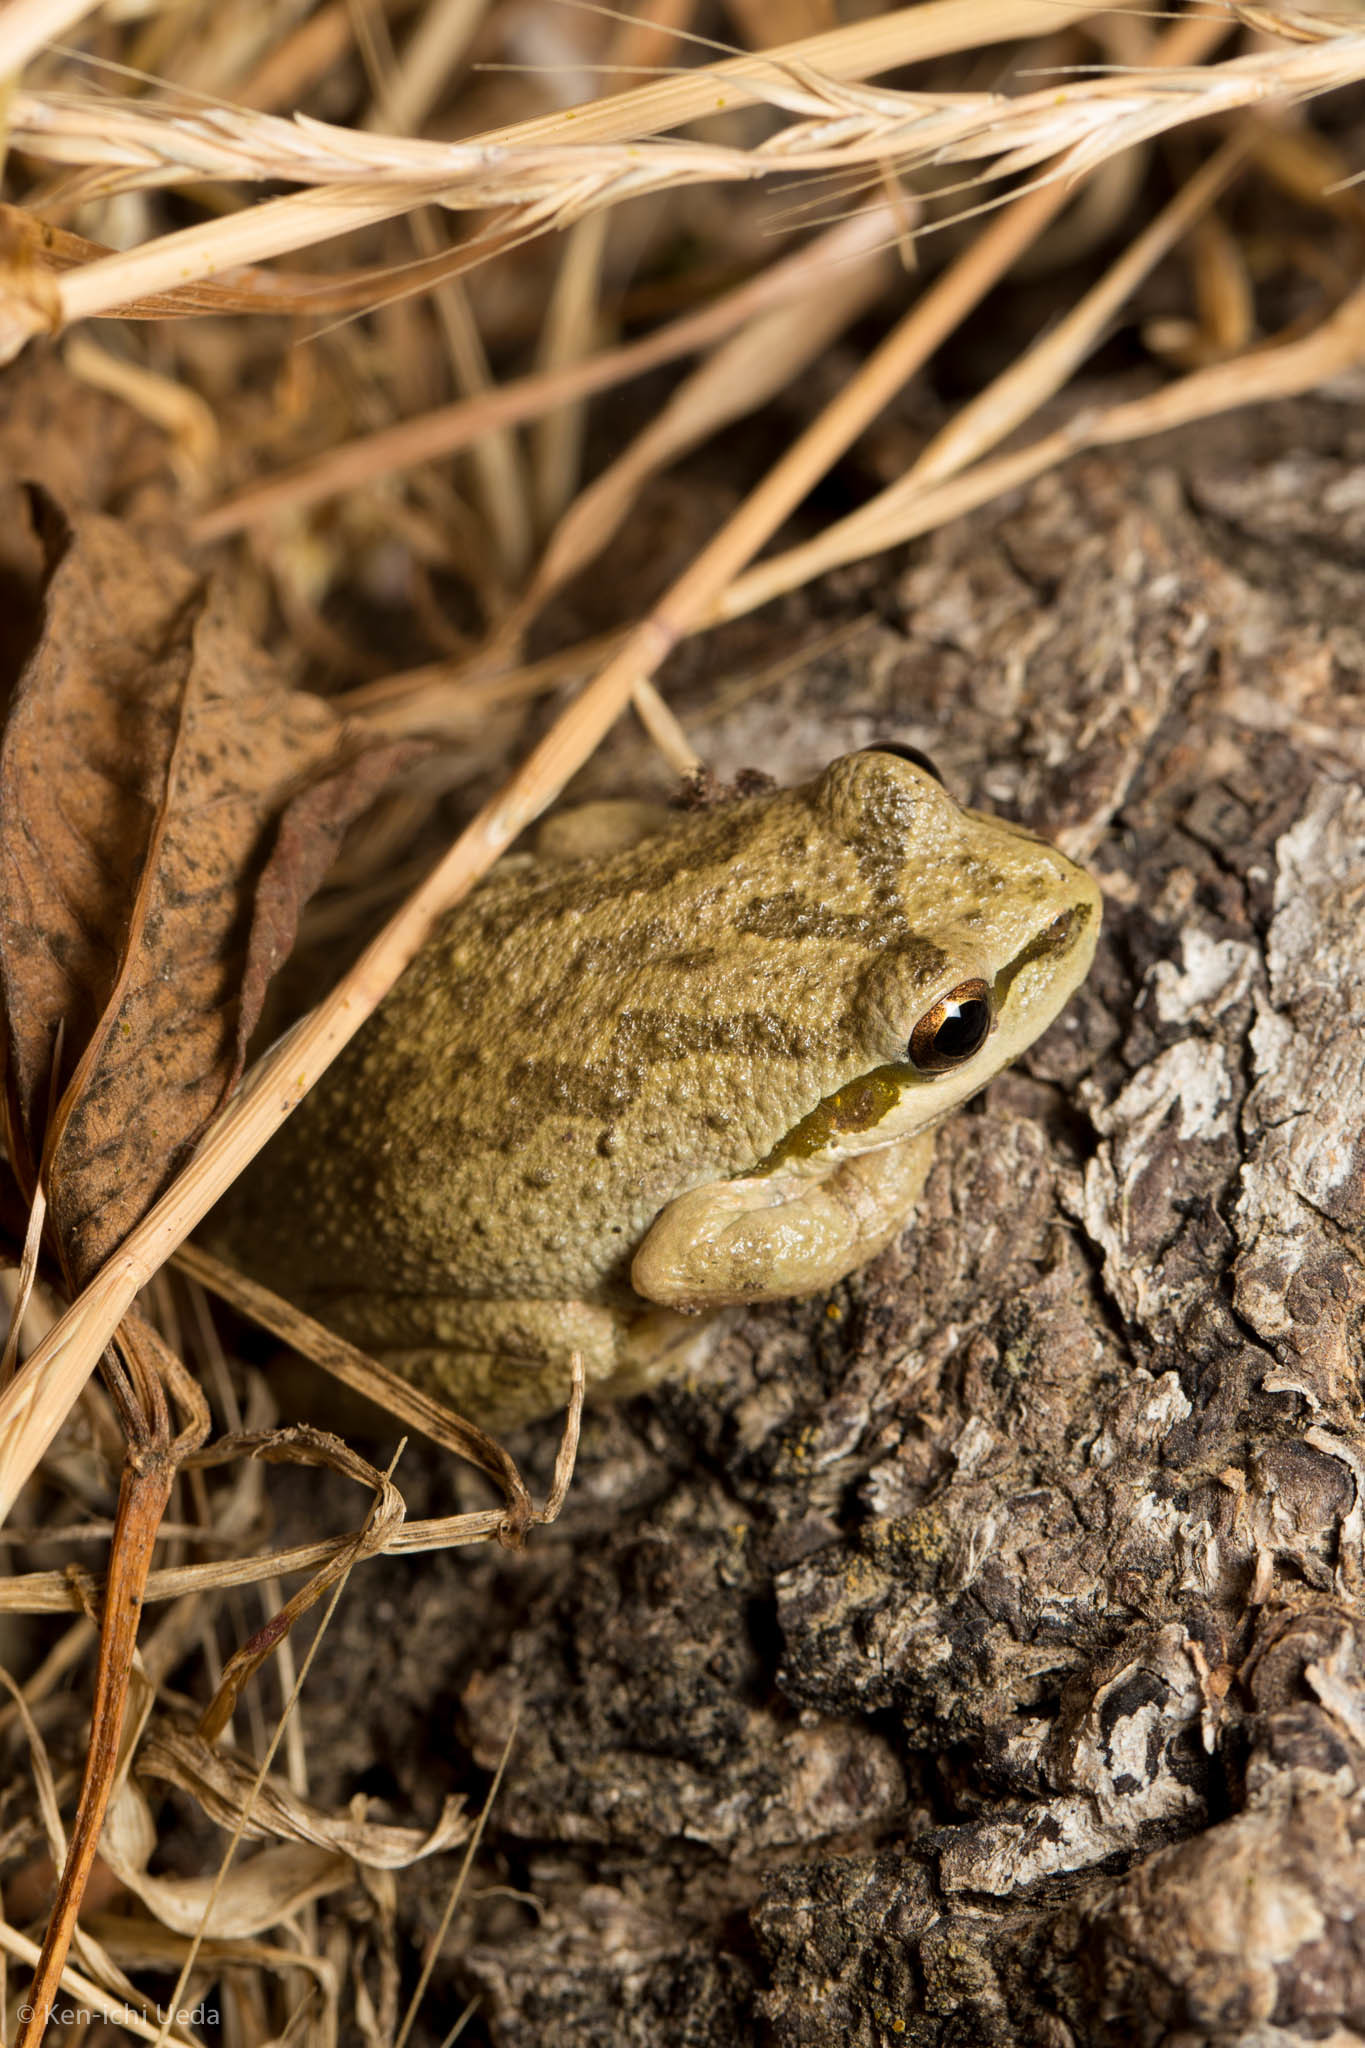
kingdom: Animalia
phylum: Chordata
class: Amphibia
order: Anura
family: Hylidae
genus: Pseudacris
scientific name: Pseudacris regilla
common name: Pacific chorus frog
